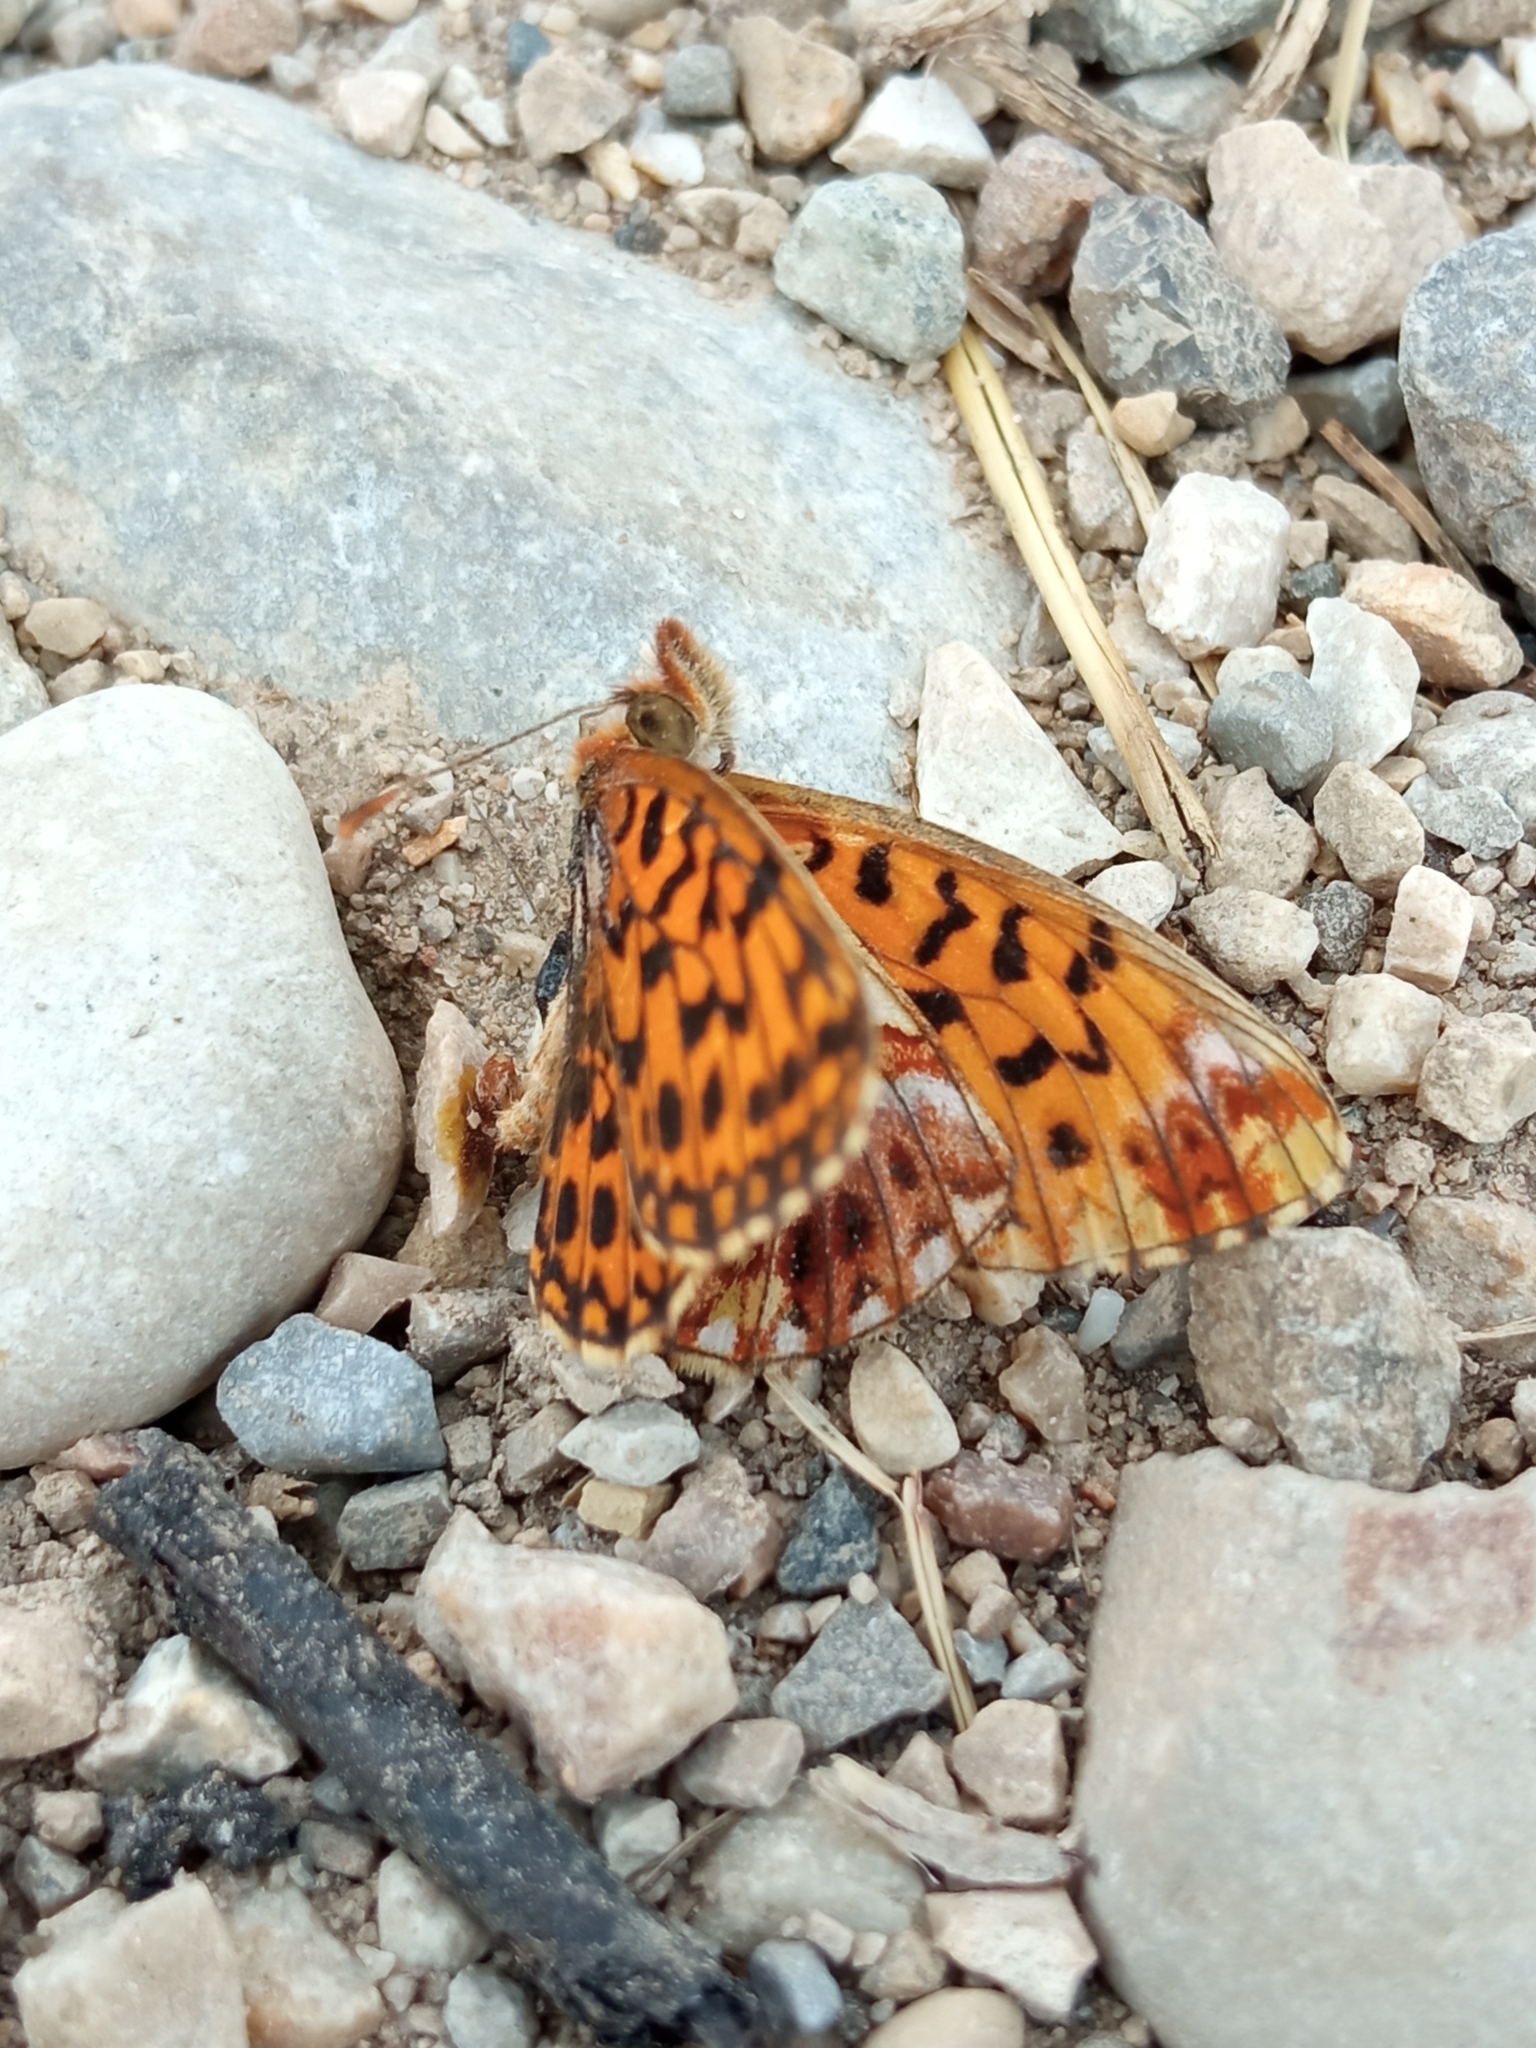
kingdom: Animalia
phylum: Arthropoda
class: Insecta
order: Lepidoptera
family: Nymphalidae
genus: Boloria
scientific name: Boloria dia
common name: Weaver's fritillary
